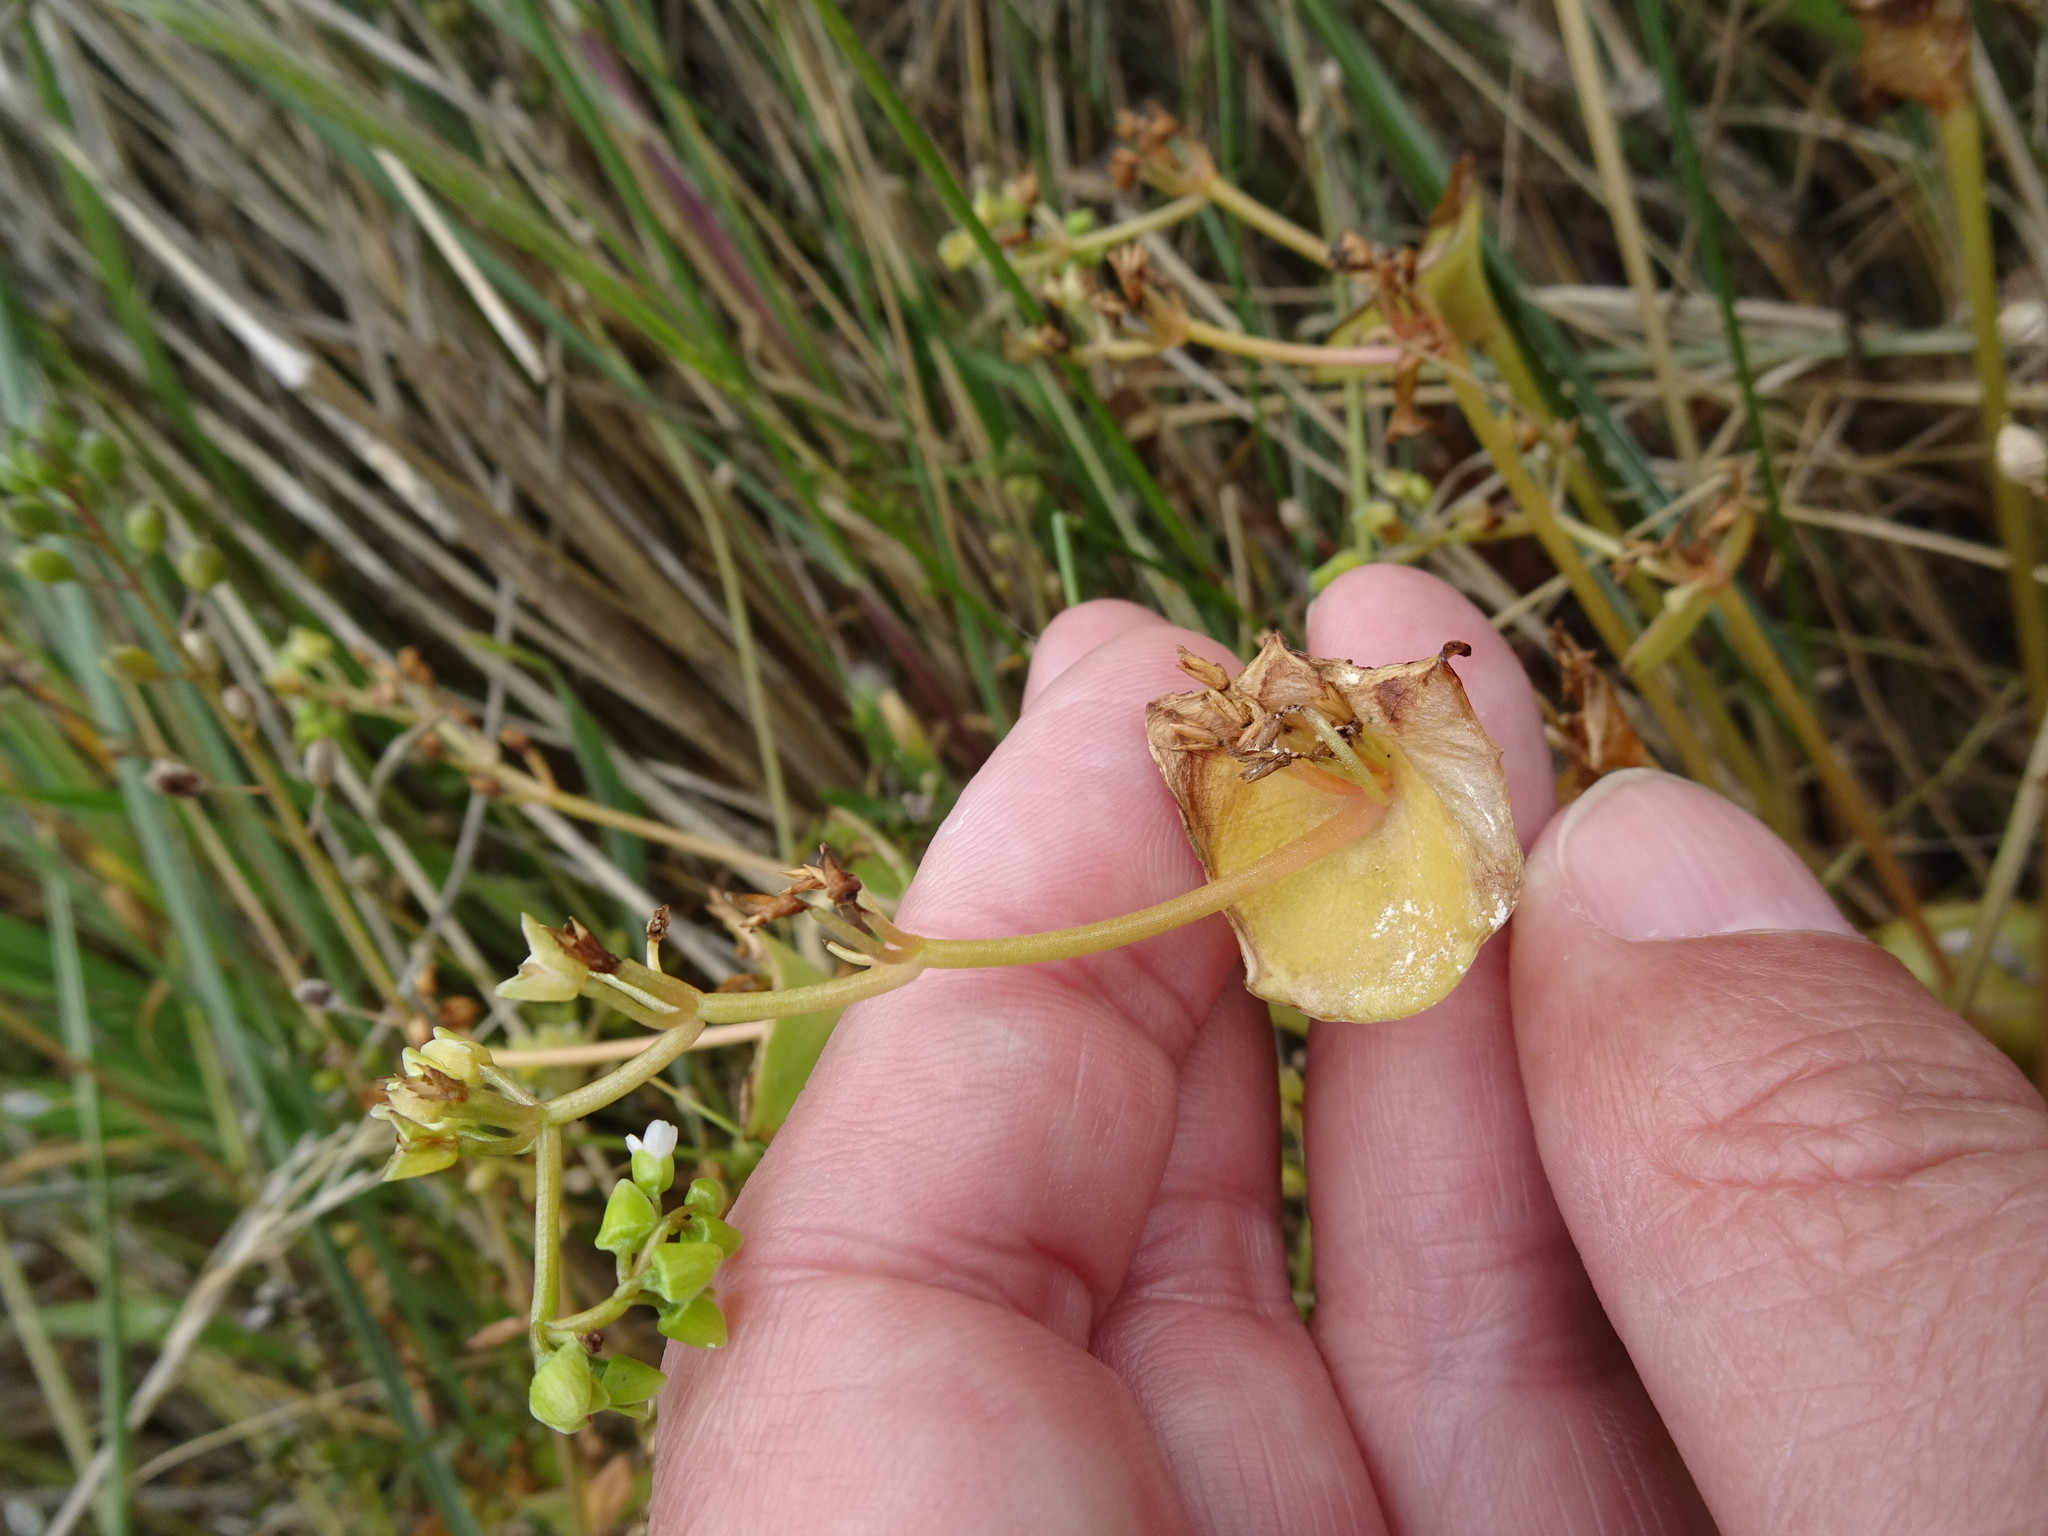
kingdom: Plantae
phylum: Tracheophyta
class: Magnoliopsida
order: Caryophyllales
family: Montiaceae
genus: Claytonia
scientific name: Claytonia perfoliata
